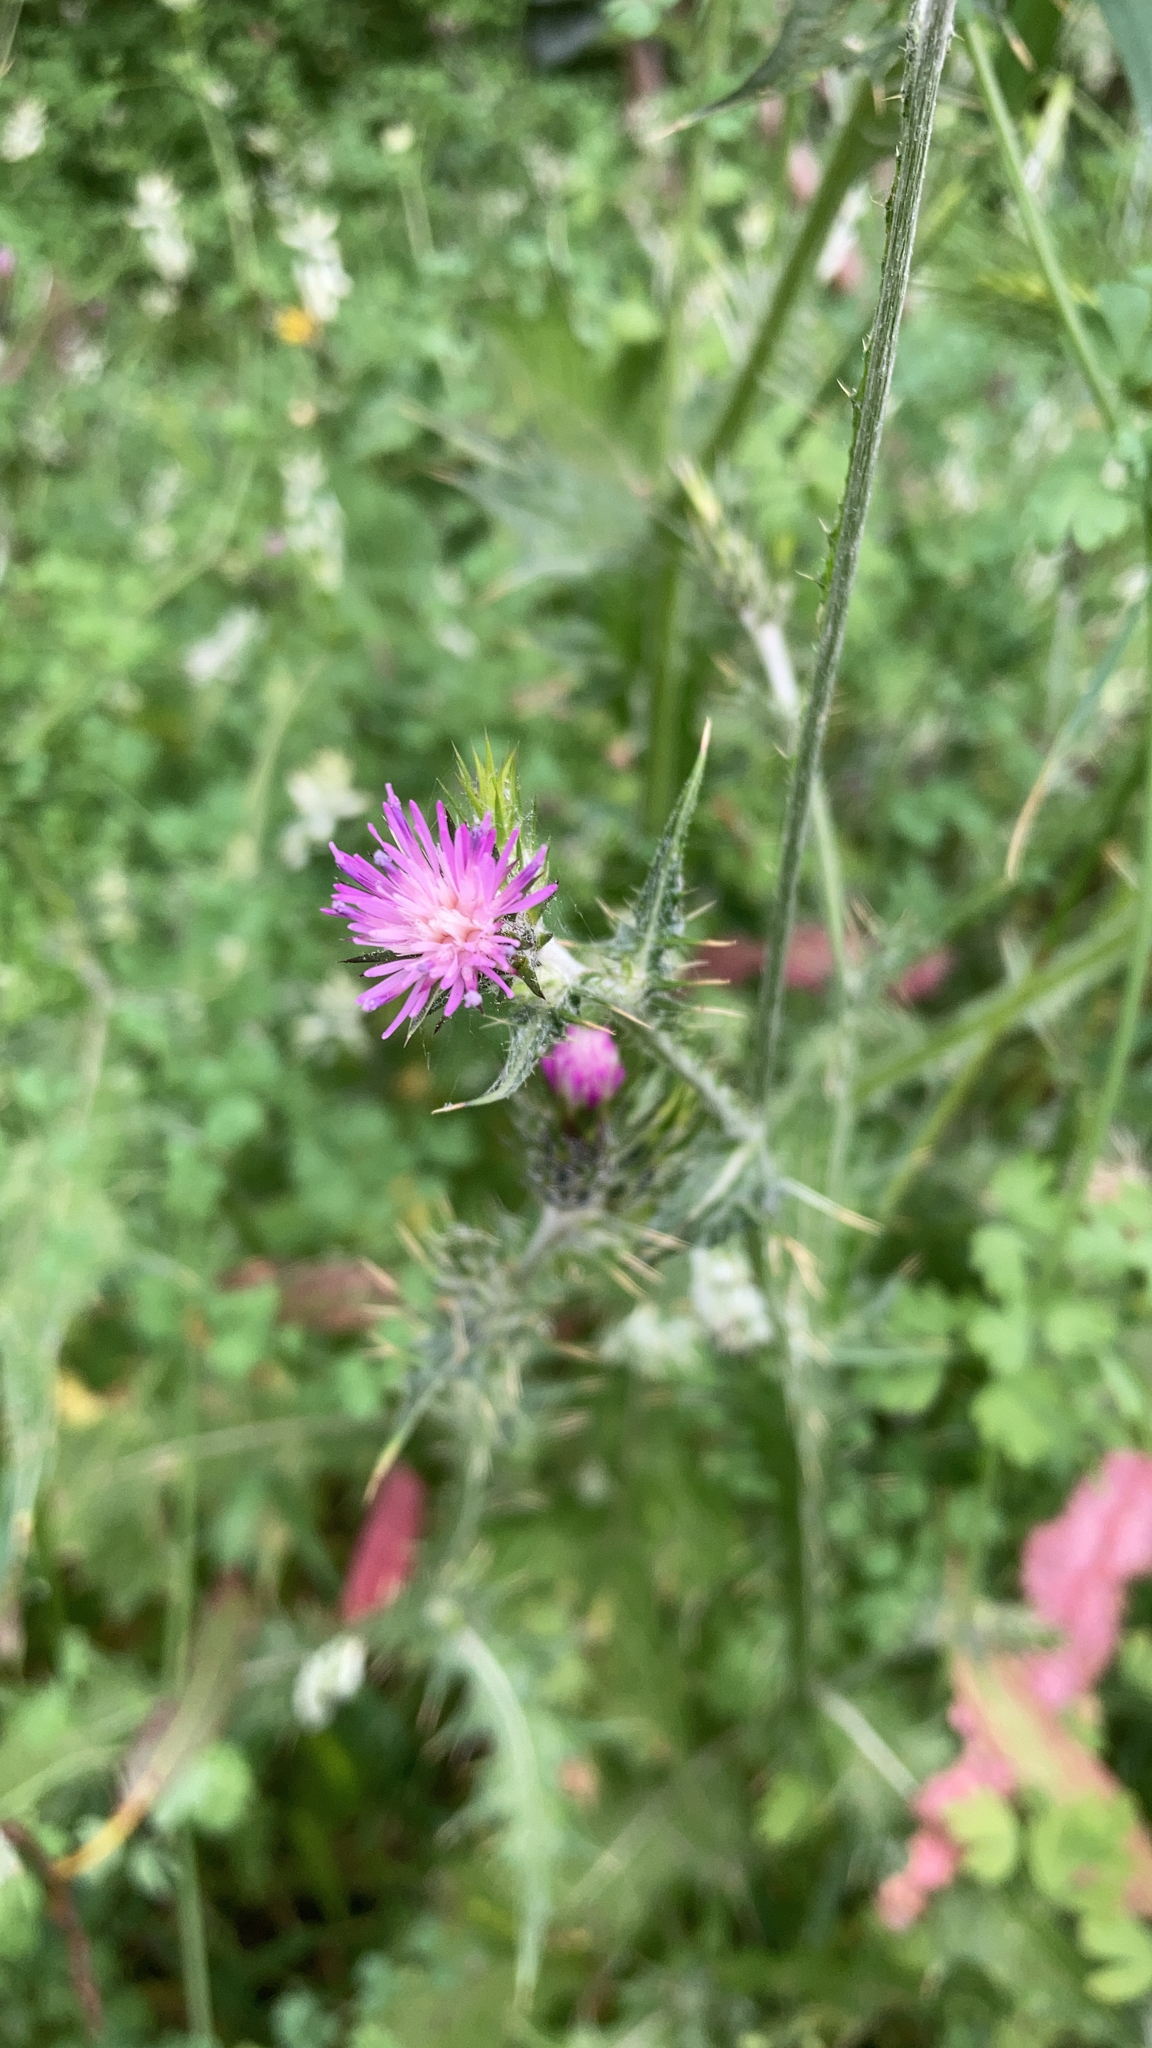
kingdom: Plantae
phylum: Tracheophyta
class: Magnoliopsida
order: Asterales
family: Asteraceae
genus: Carduus
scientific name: Carduus pycnocephalus
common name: Plymouth thistle
